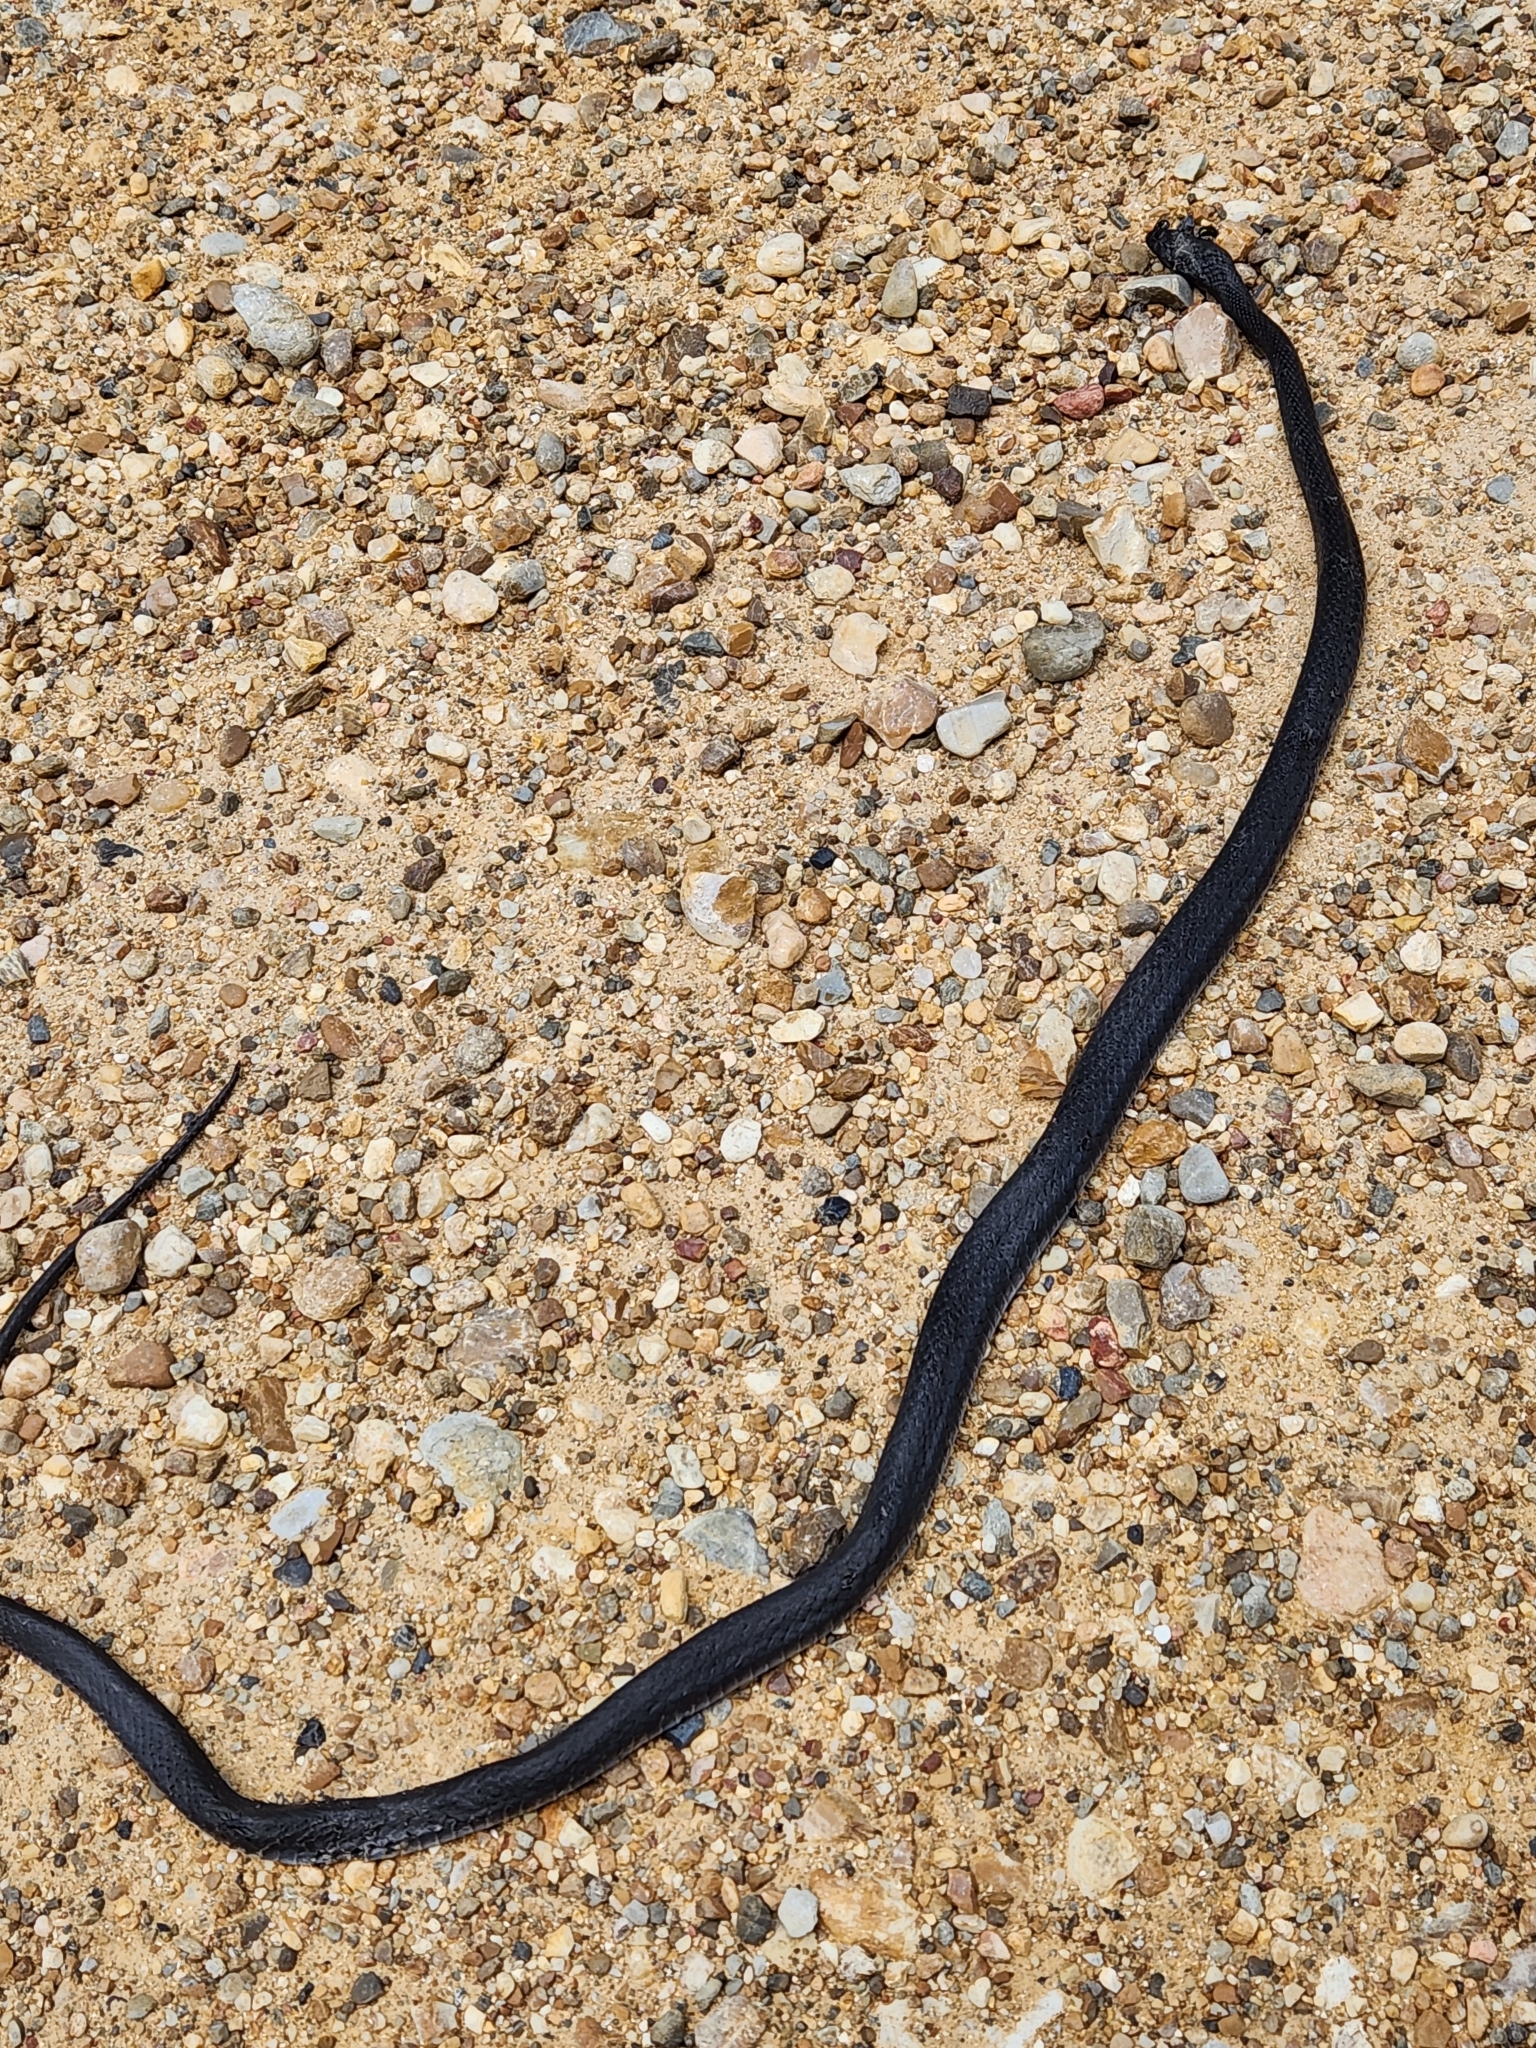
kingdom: Animalia
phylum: Chordata
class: Squamata
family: Colubridae
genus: Coluber
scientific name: Coluber constrictor
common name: Eastern racer
